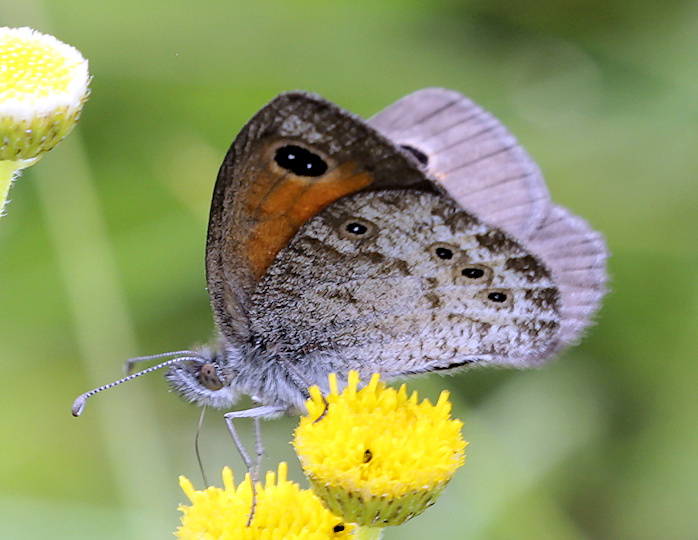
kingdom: Animalia
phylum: Arthropoda
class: Insecta
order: Lepidoptera
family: Nymphalidae
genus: Pseudonympha
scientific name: Pseudonympha magus
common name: Silver-bottom brown
